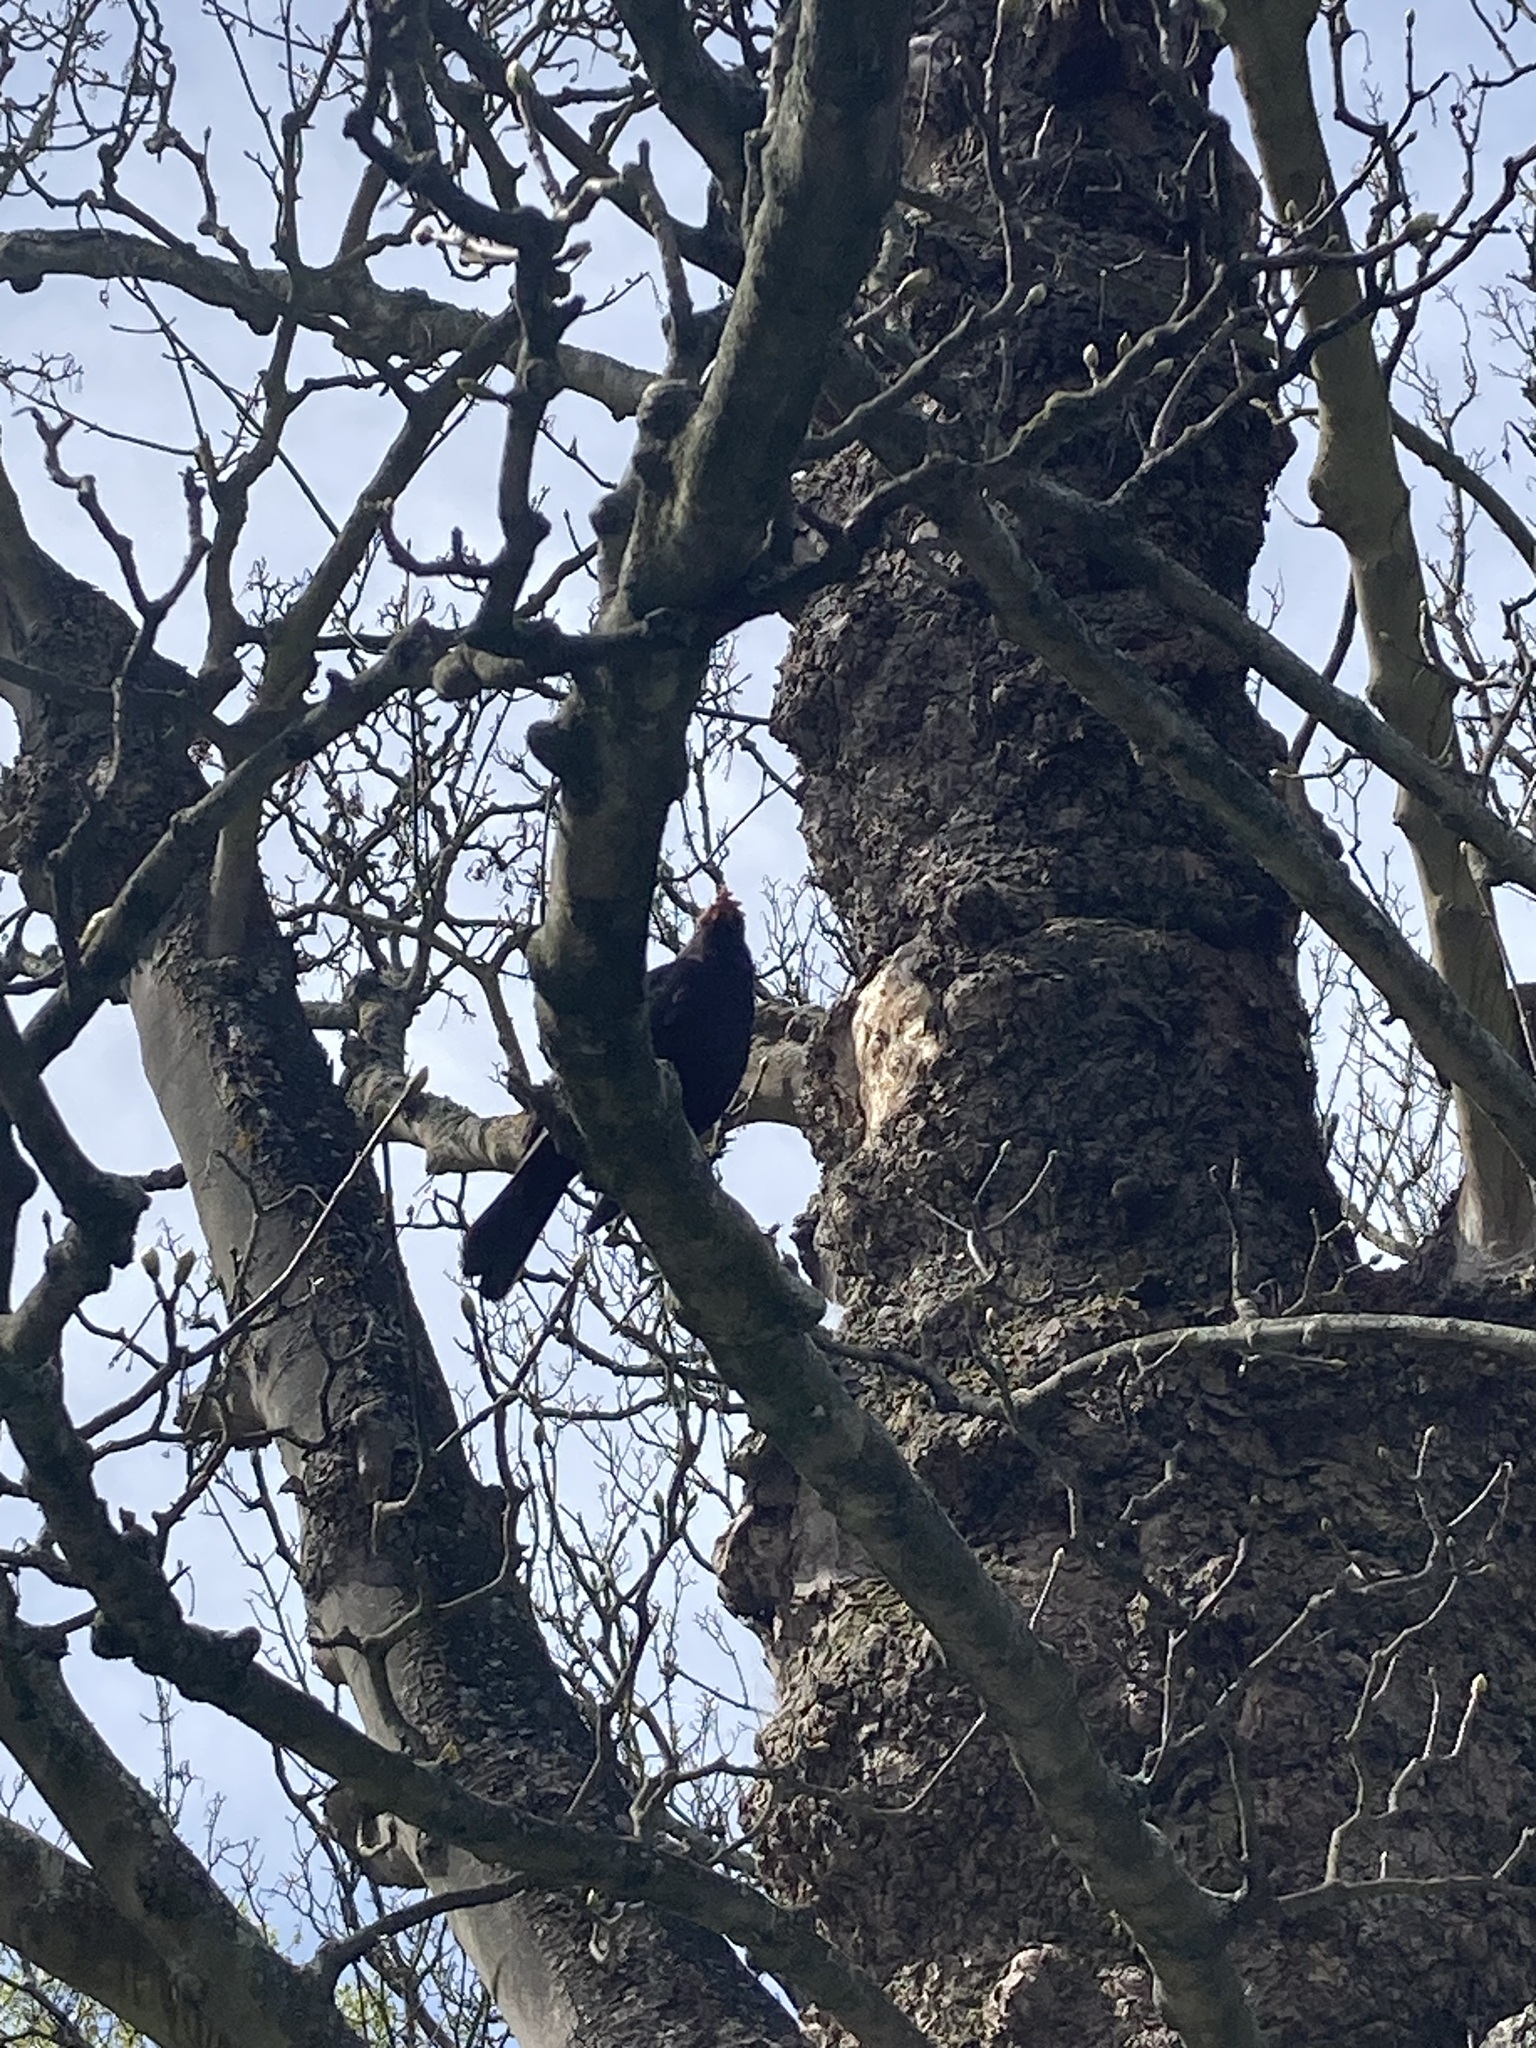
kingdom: Animalia
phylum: Chordata
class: Aves
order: Passeriformes
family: Turdidae
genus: Turdus
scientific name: Turdus merula
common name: Common blackbird
